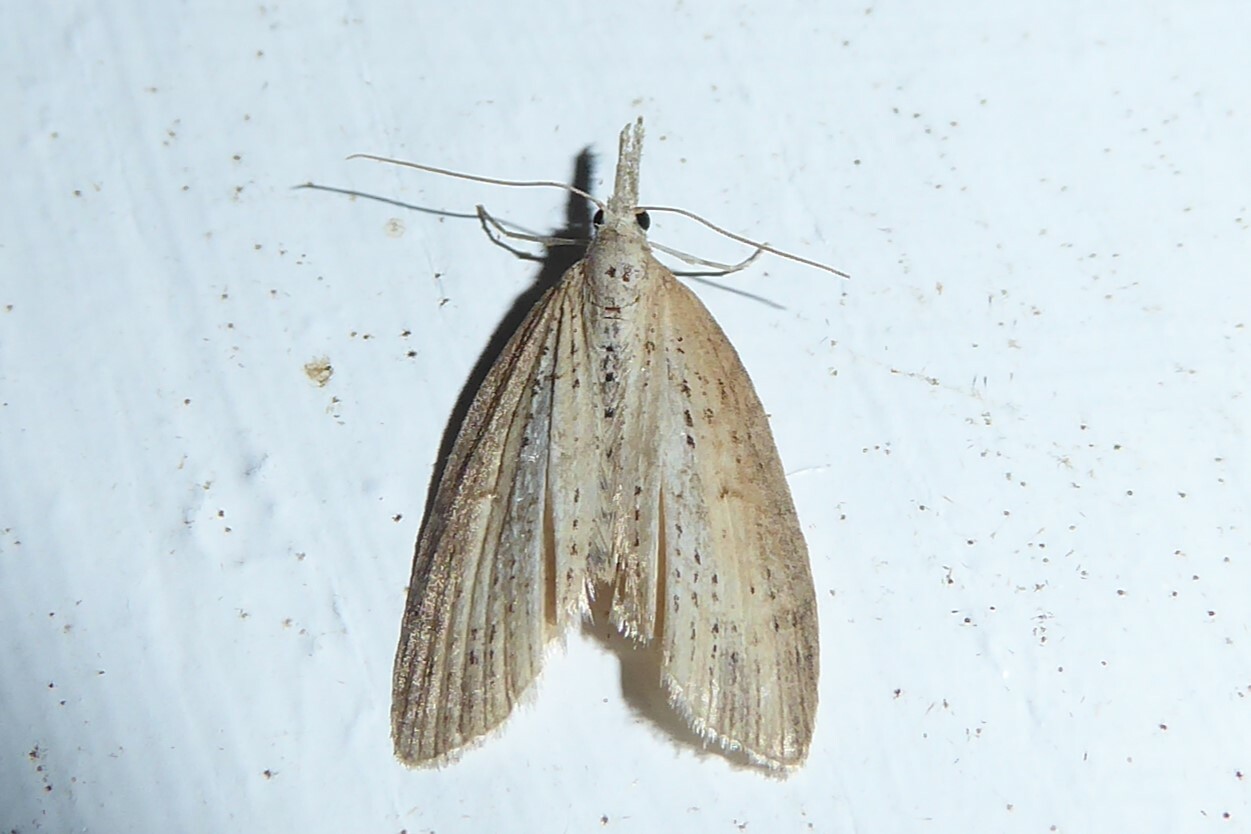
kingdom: Animalia
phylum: Arthropoda
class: Insecta
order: Lepidoptera
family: Geometridae
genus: Microdes
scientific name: Microdes epicryptis
